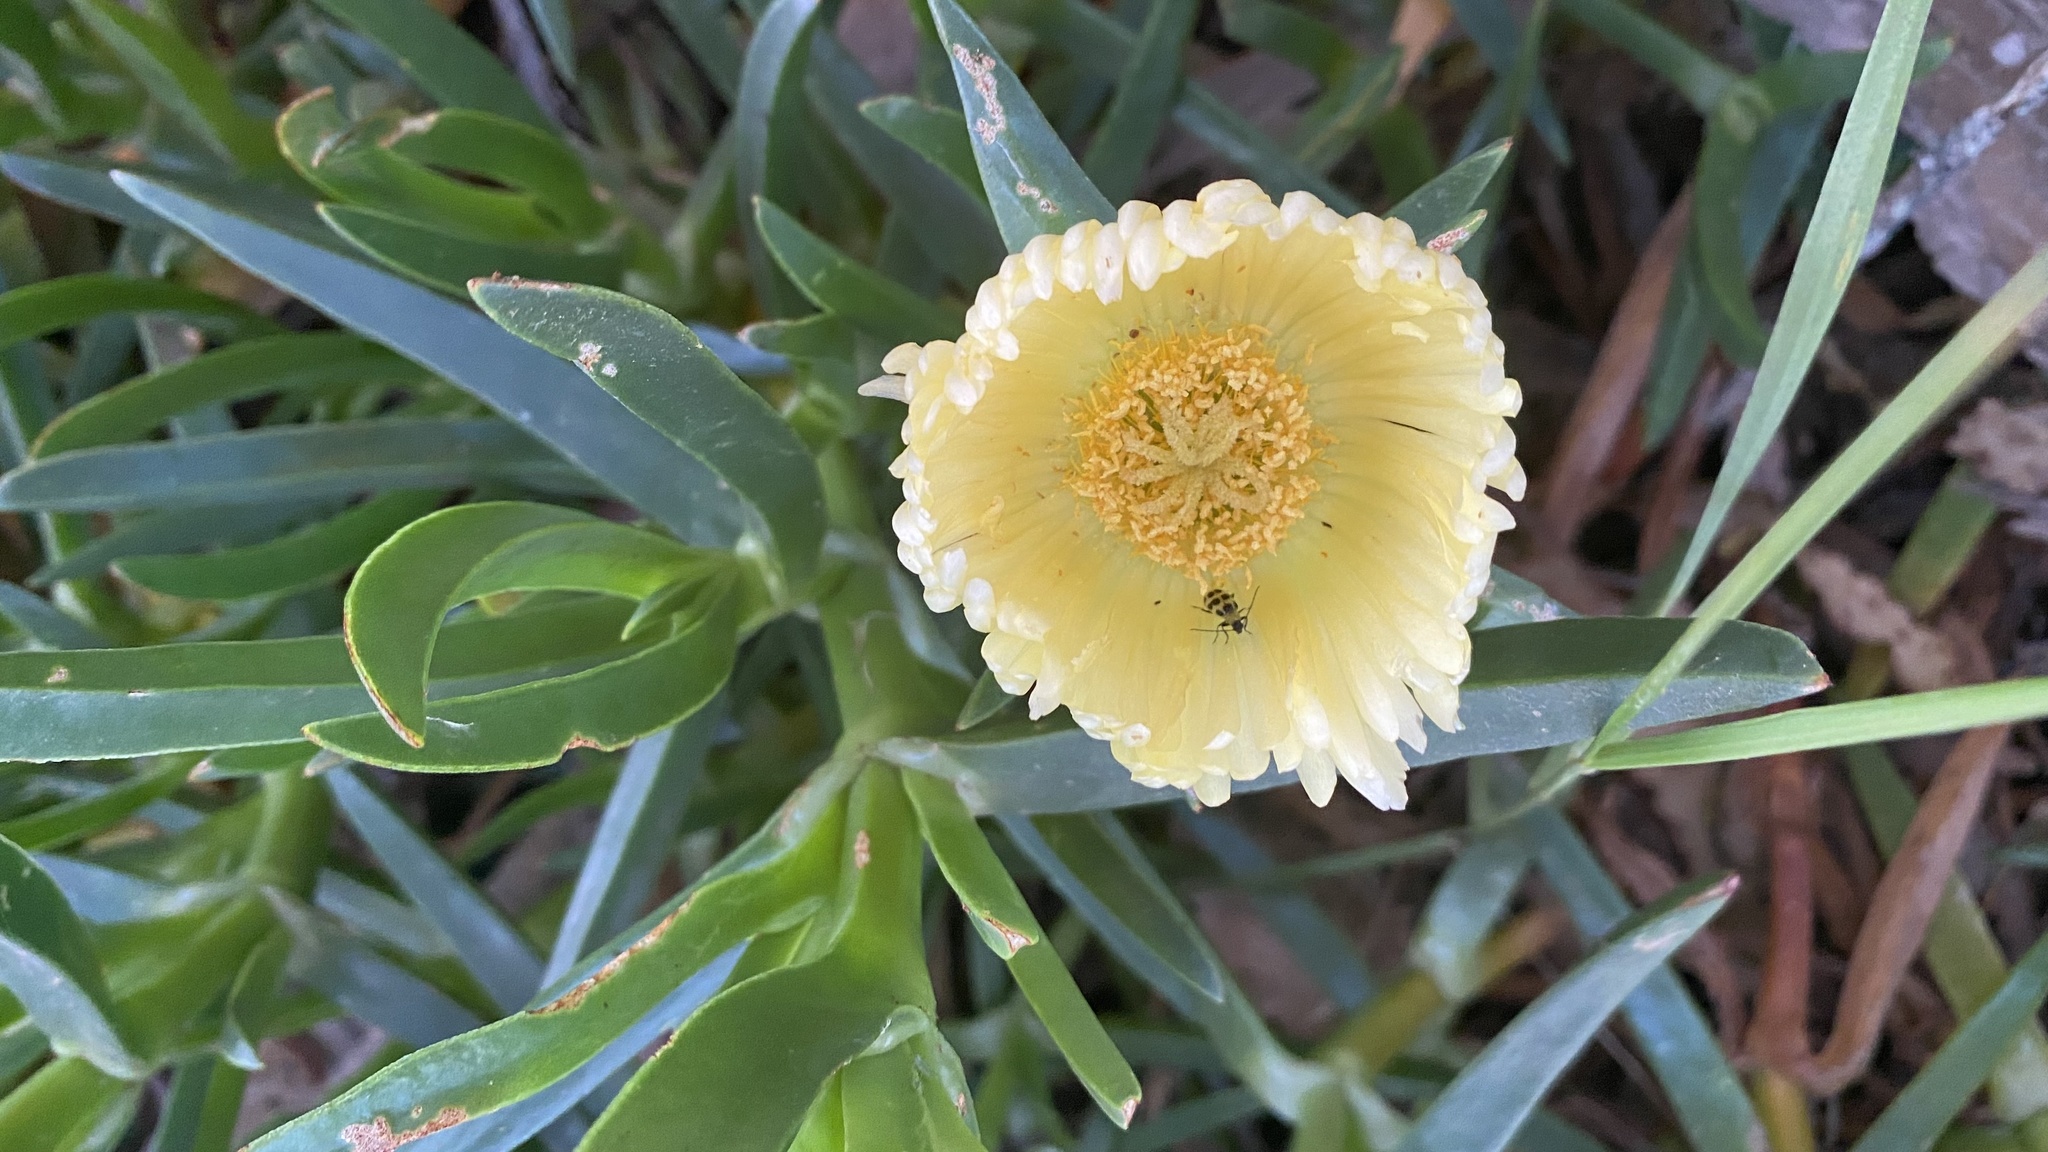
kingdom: Plantae
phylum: Tracheophyta
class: Magnoliopsida
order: Caryophyllales
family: Aizoaceae
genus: Carpobrotus
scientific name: Carpobrotus edulis
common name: Hottentot-fig
